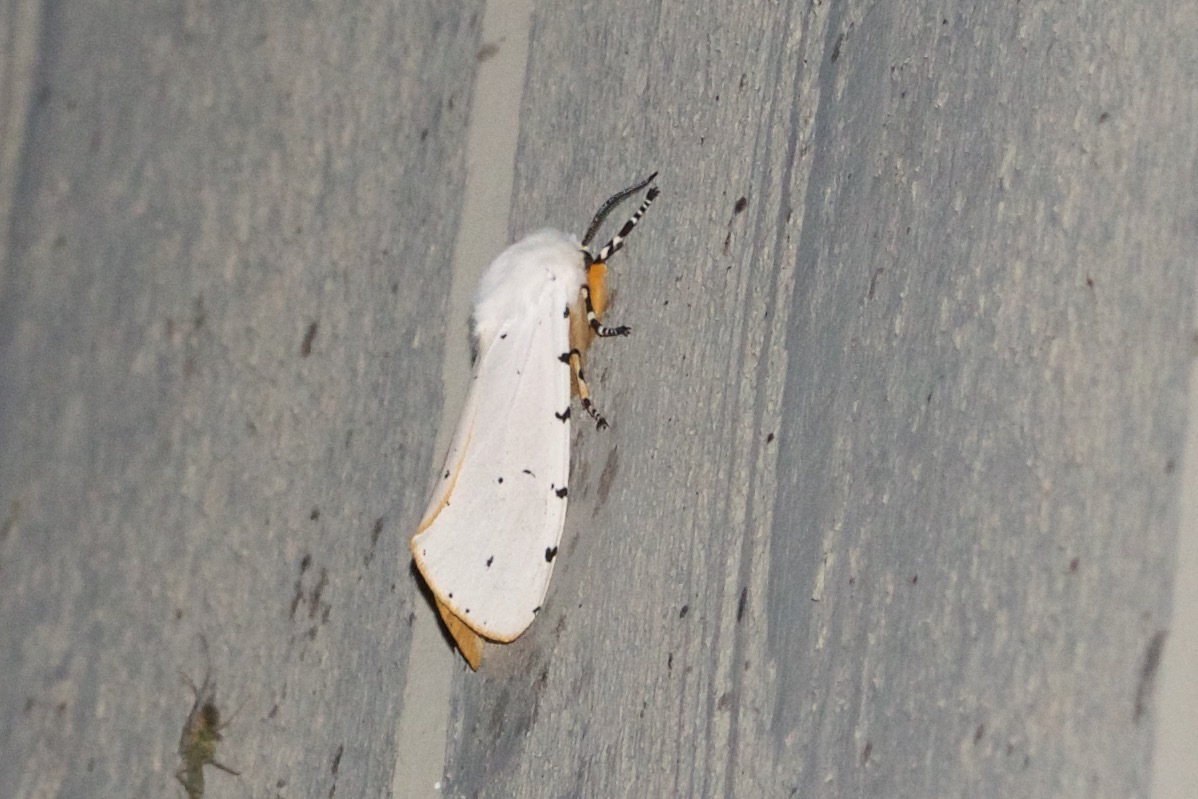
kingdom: Animalia
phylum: Arthropoda
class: Insecta
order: Lepidoptera
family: Erebidae
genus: Estigmene
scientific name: Estigmene acrea
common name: Salt marsh moth
